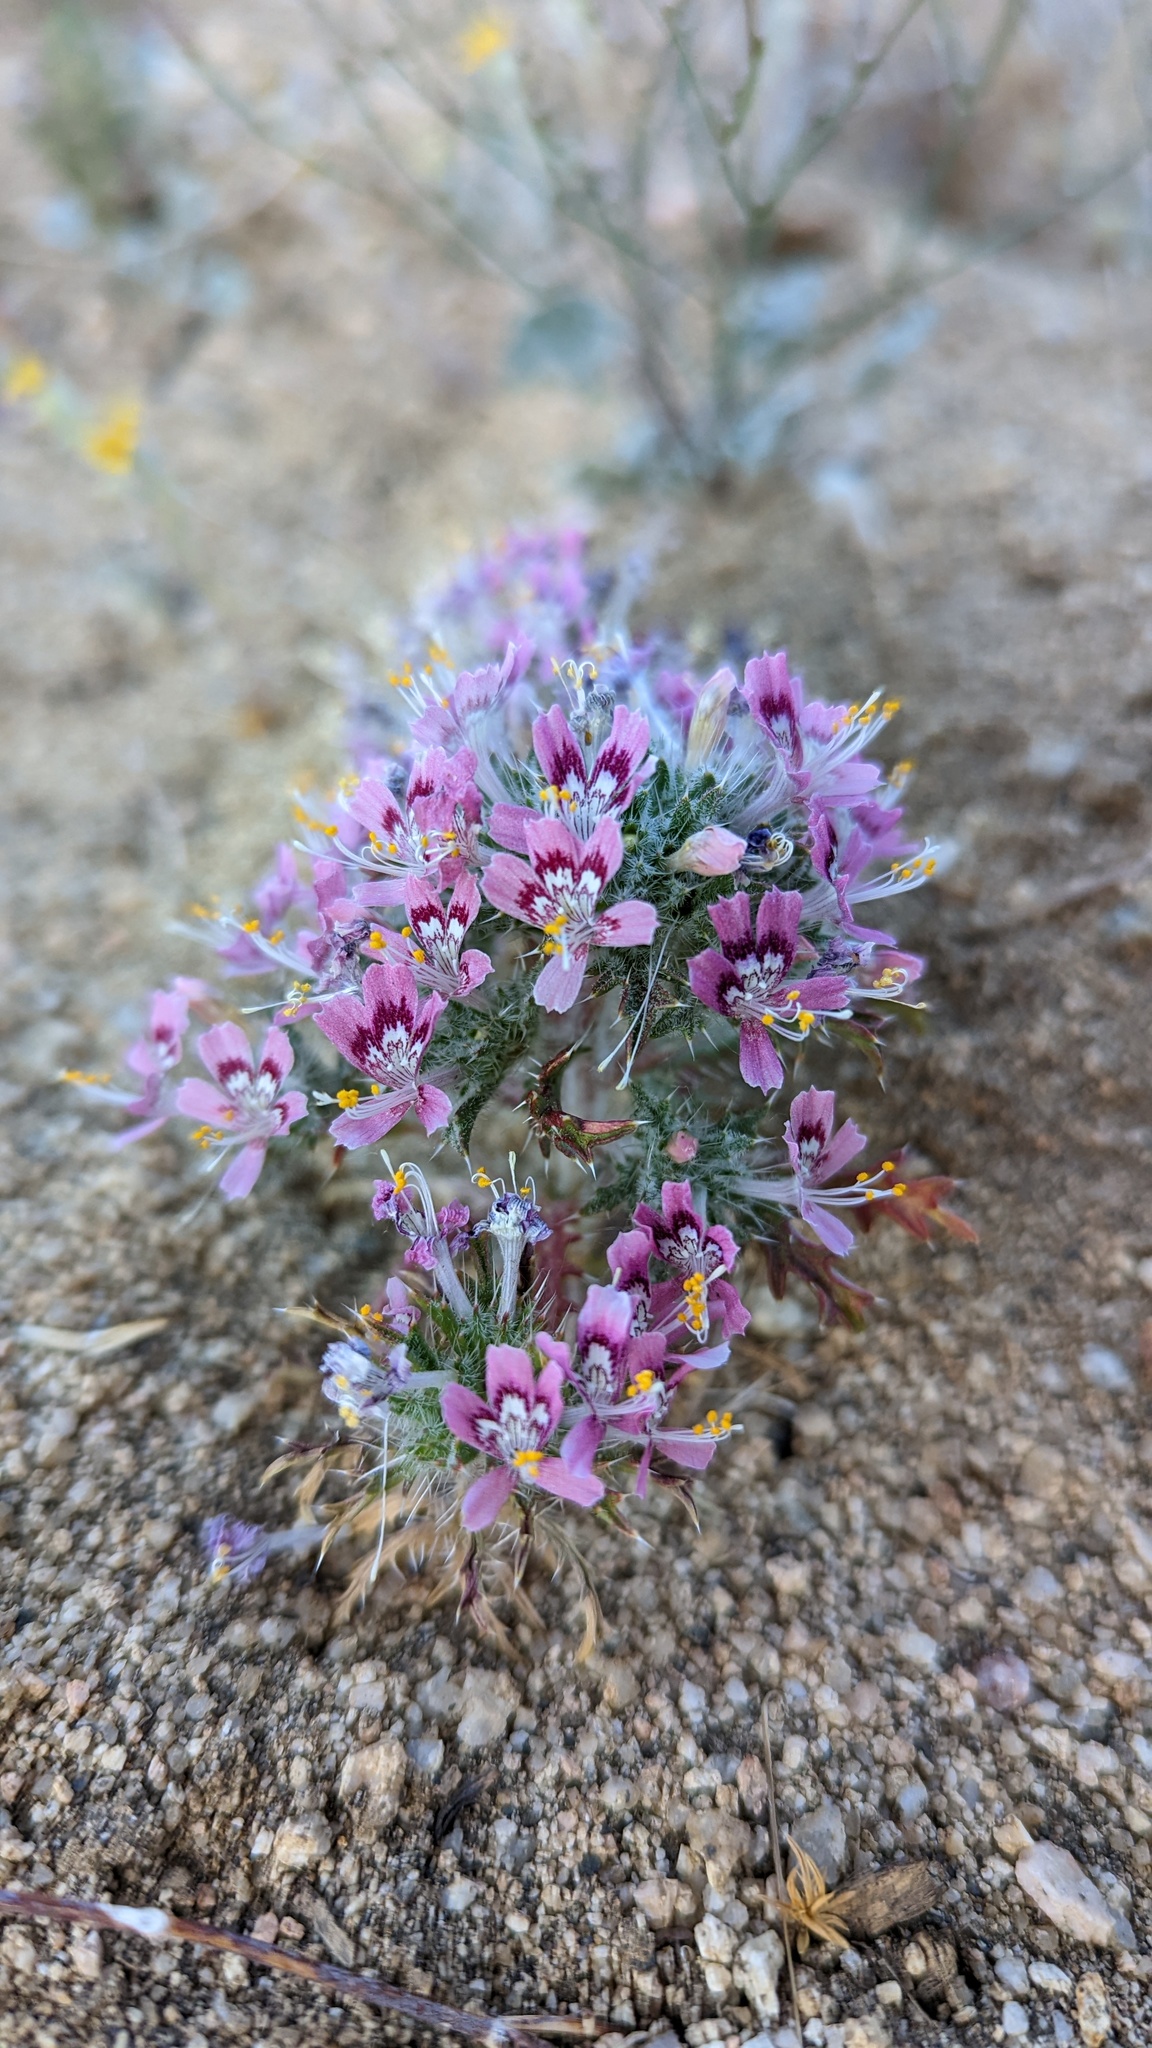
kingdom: Plantae
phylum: Tracheophyta
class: Magnoliopsida
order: Ericales
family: Polemoniaceae
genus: Loeseliastrum
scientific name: Loeseliastrum matthewsii
